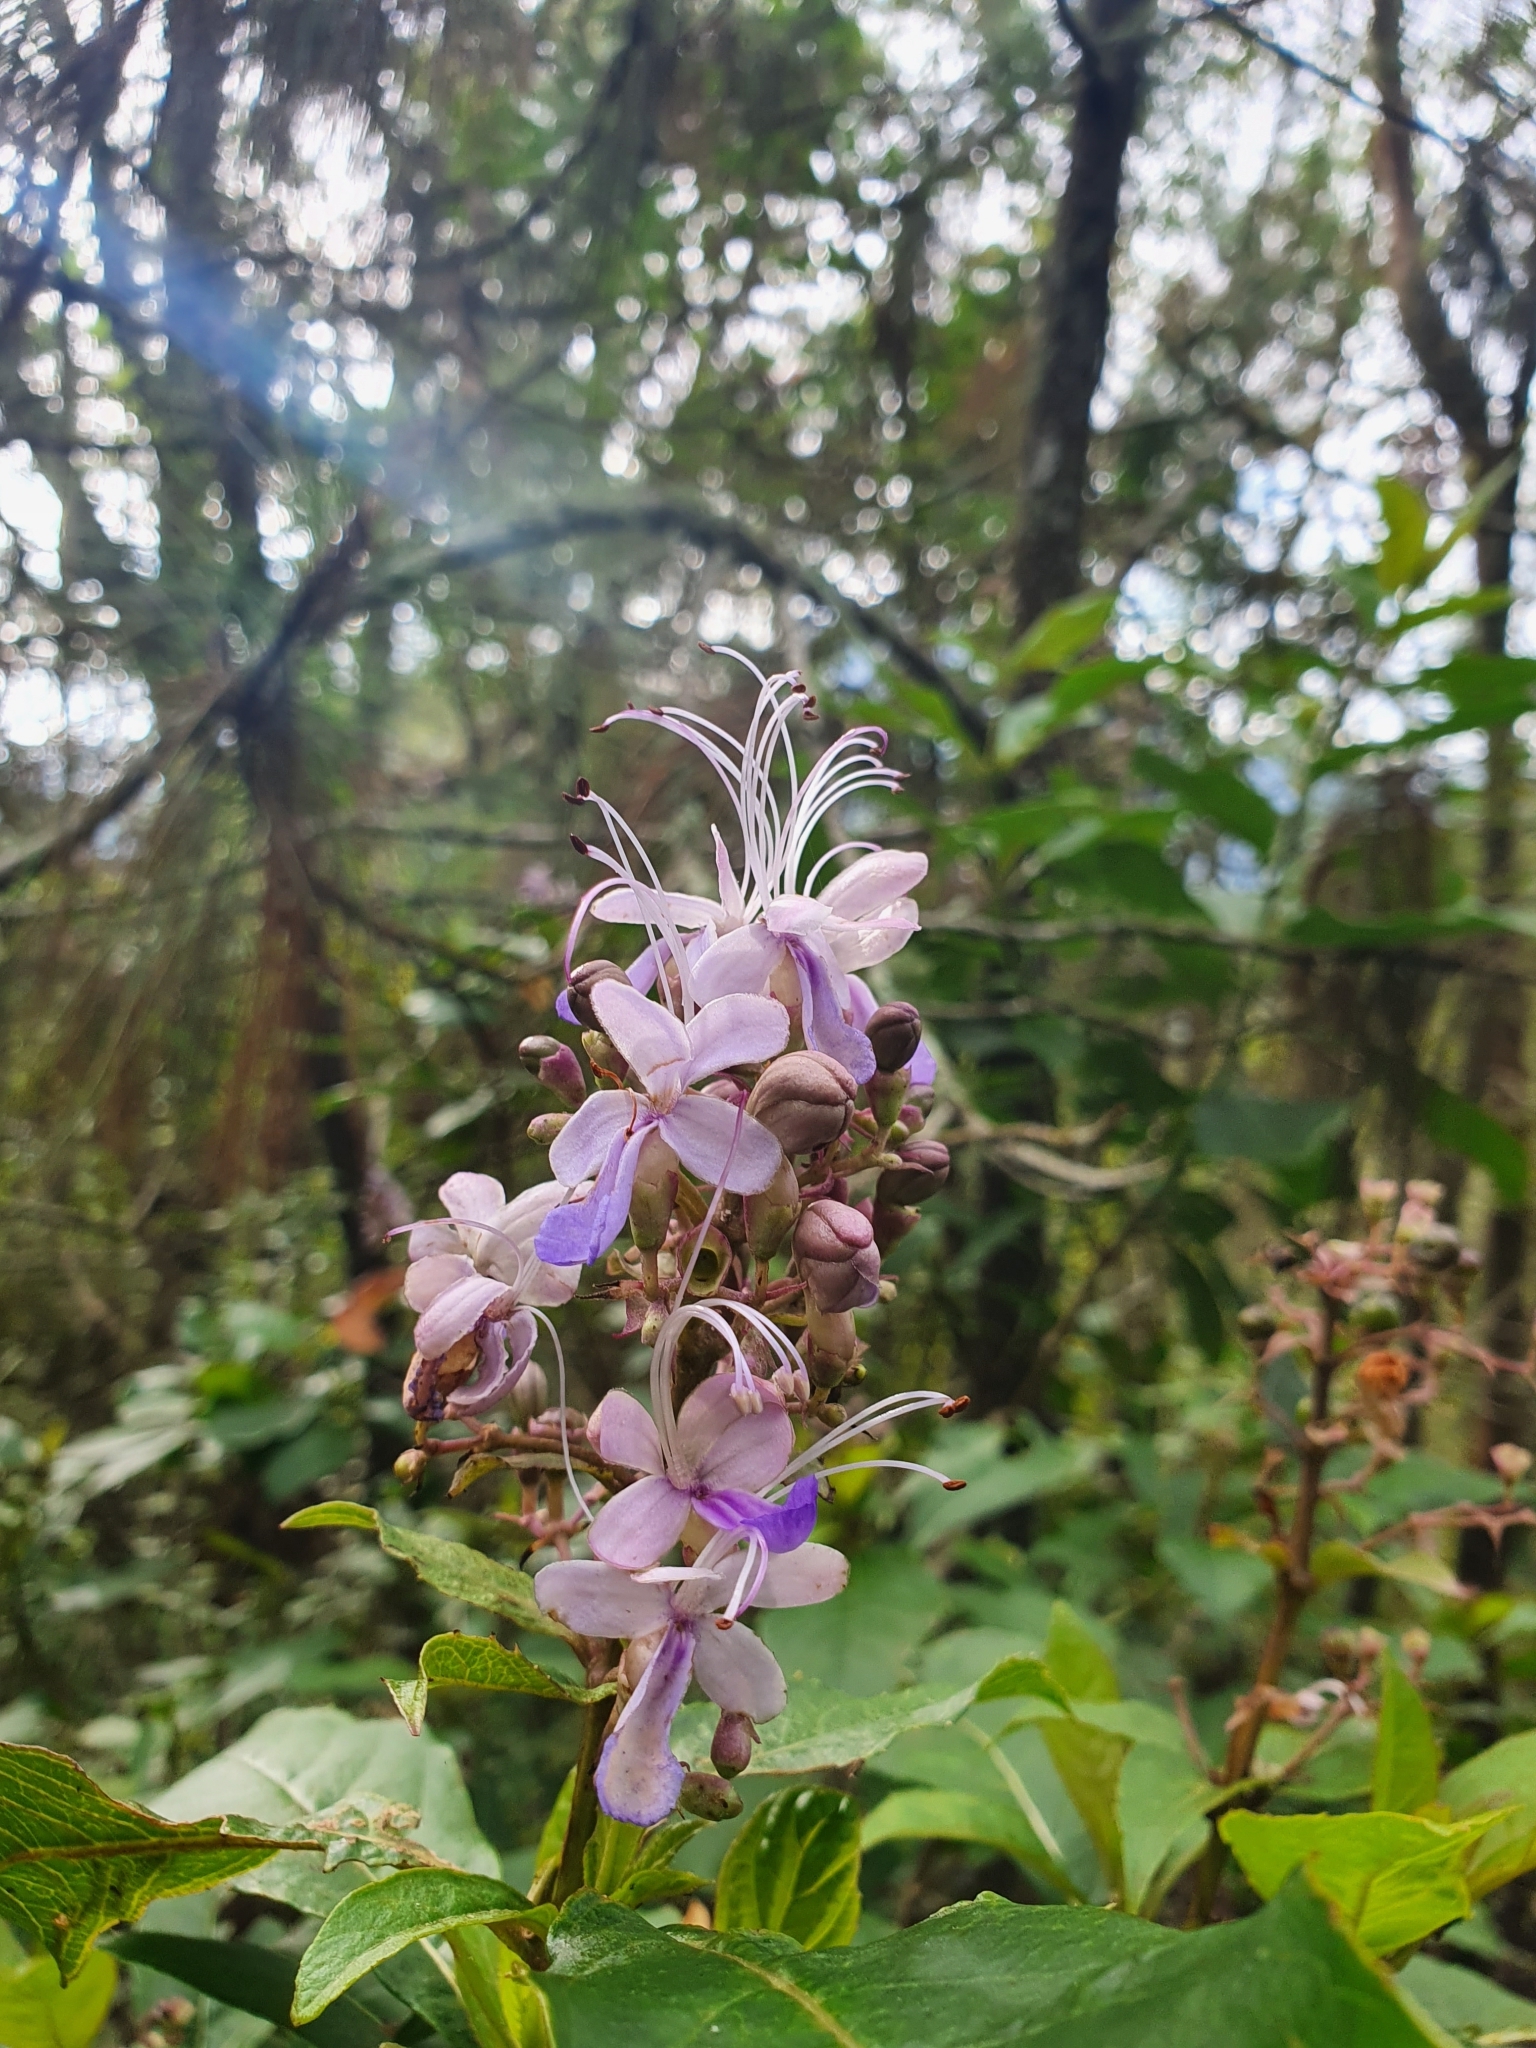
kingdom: Plantae
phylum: Tracheophyta
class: Magnoliopsida
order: Lamiales
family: Lamiaceae
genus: Rotheca
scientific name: Rotheca myricoides
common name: Cats-whiskers
